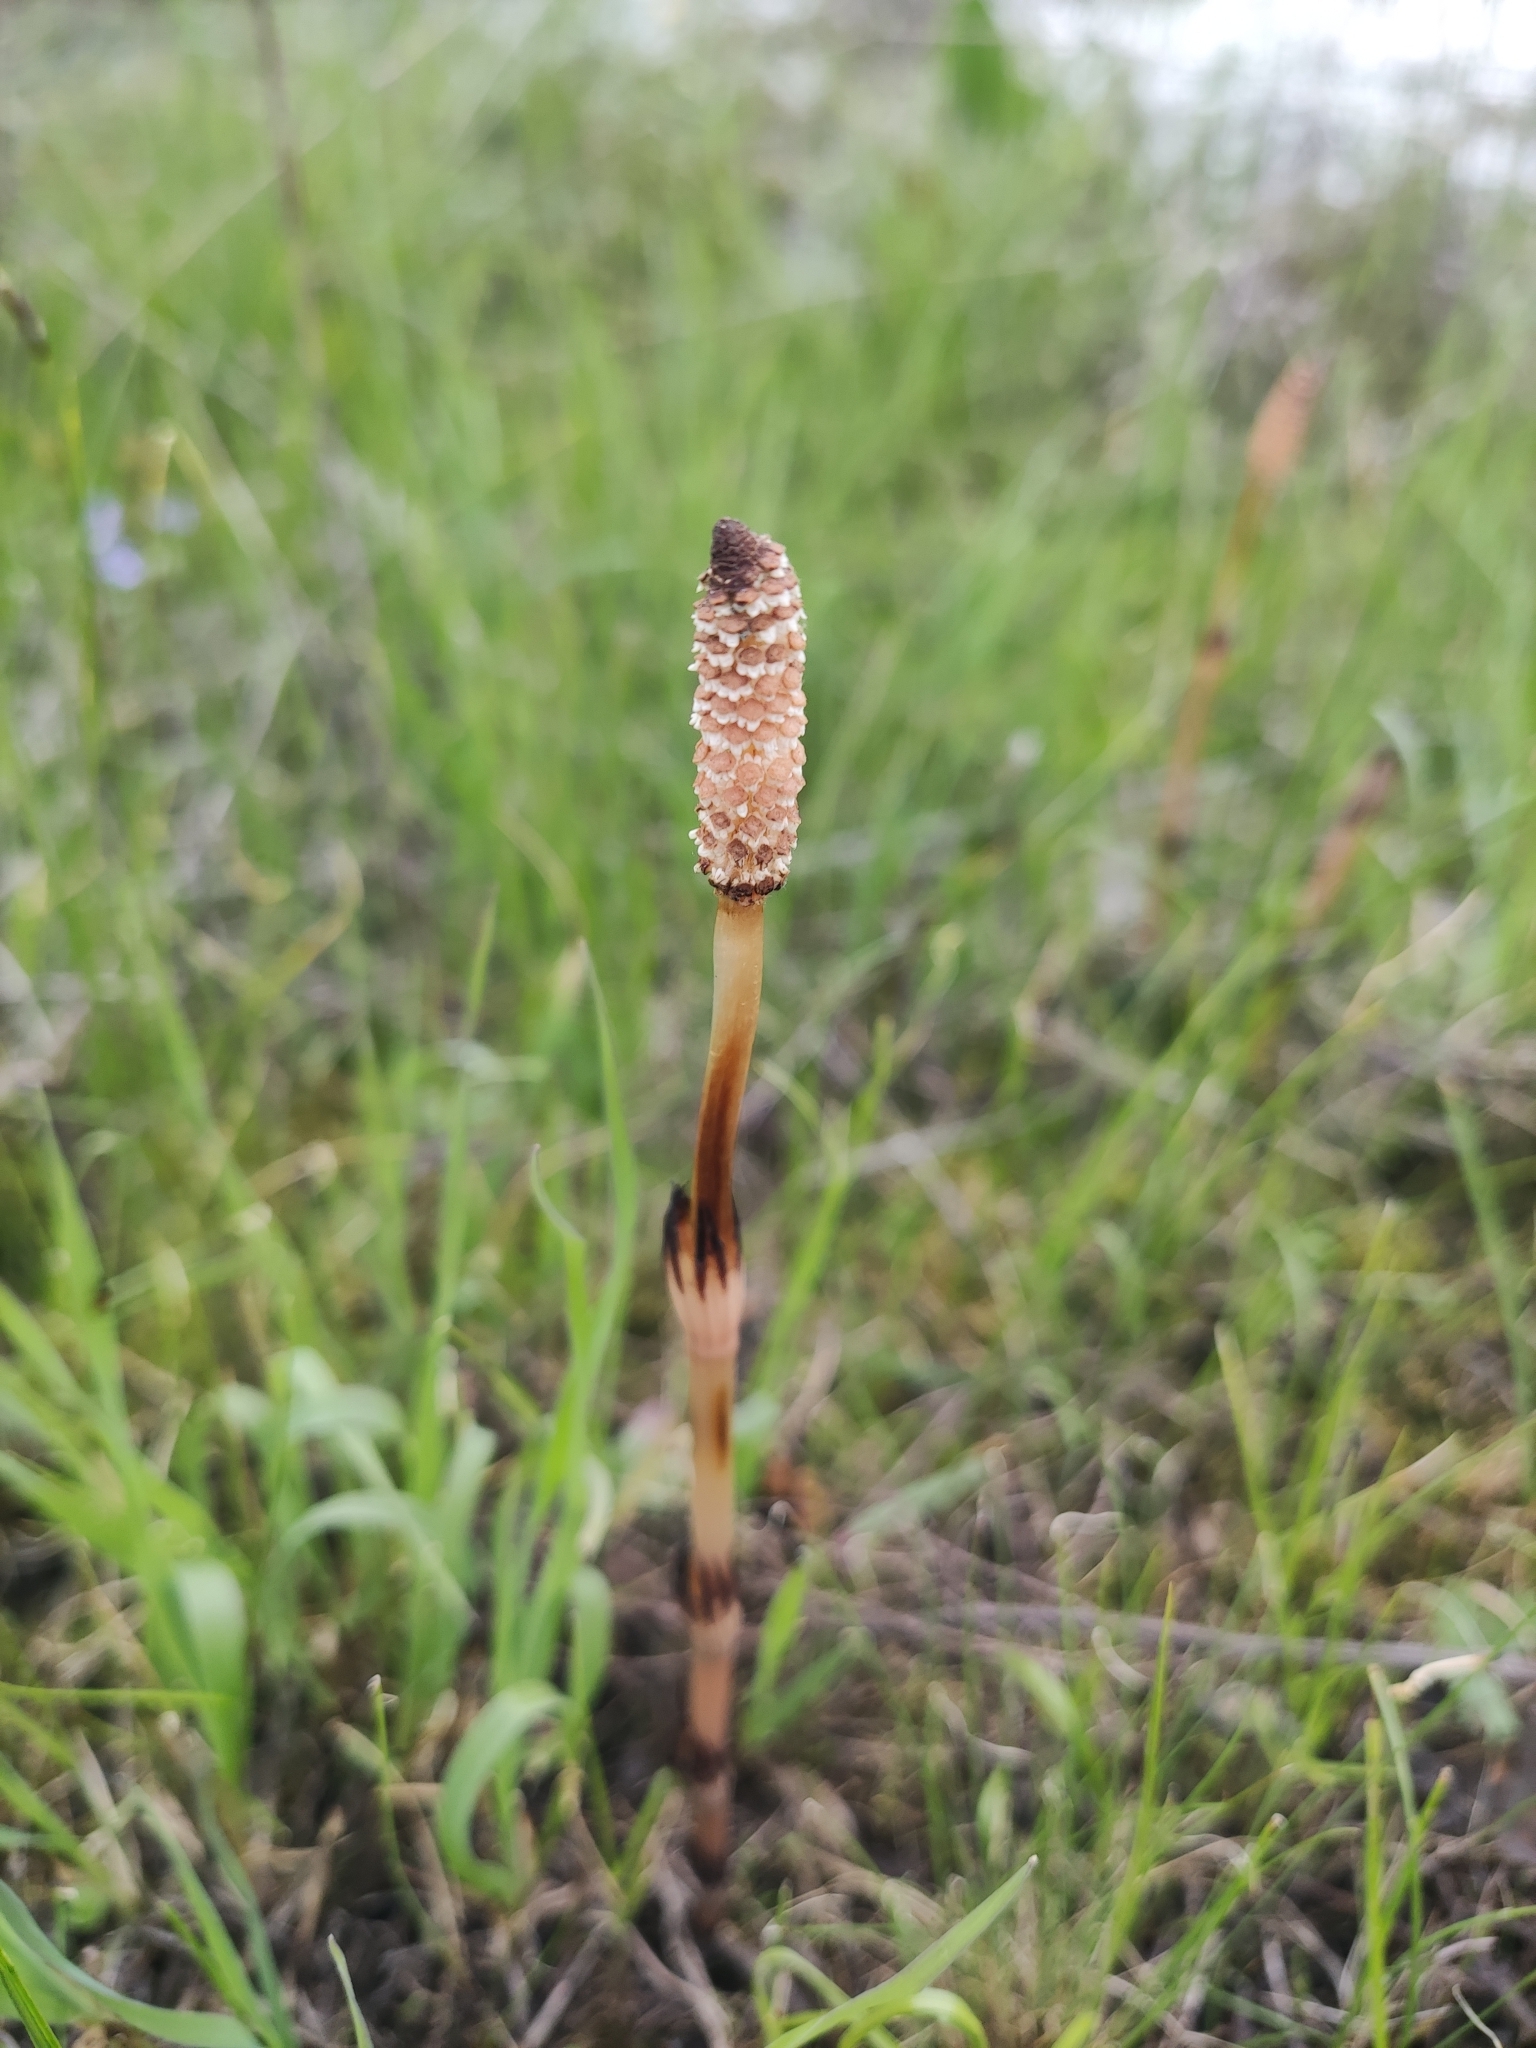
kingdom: Plantae
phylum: Tracheophyta
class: Polypodiopsida
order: Equisetales
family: Equisetaceae
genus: Equisetum
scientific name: Equisetum arvense
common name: Field horsetail
